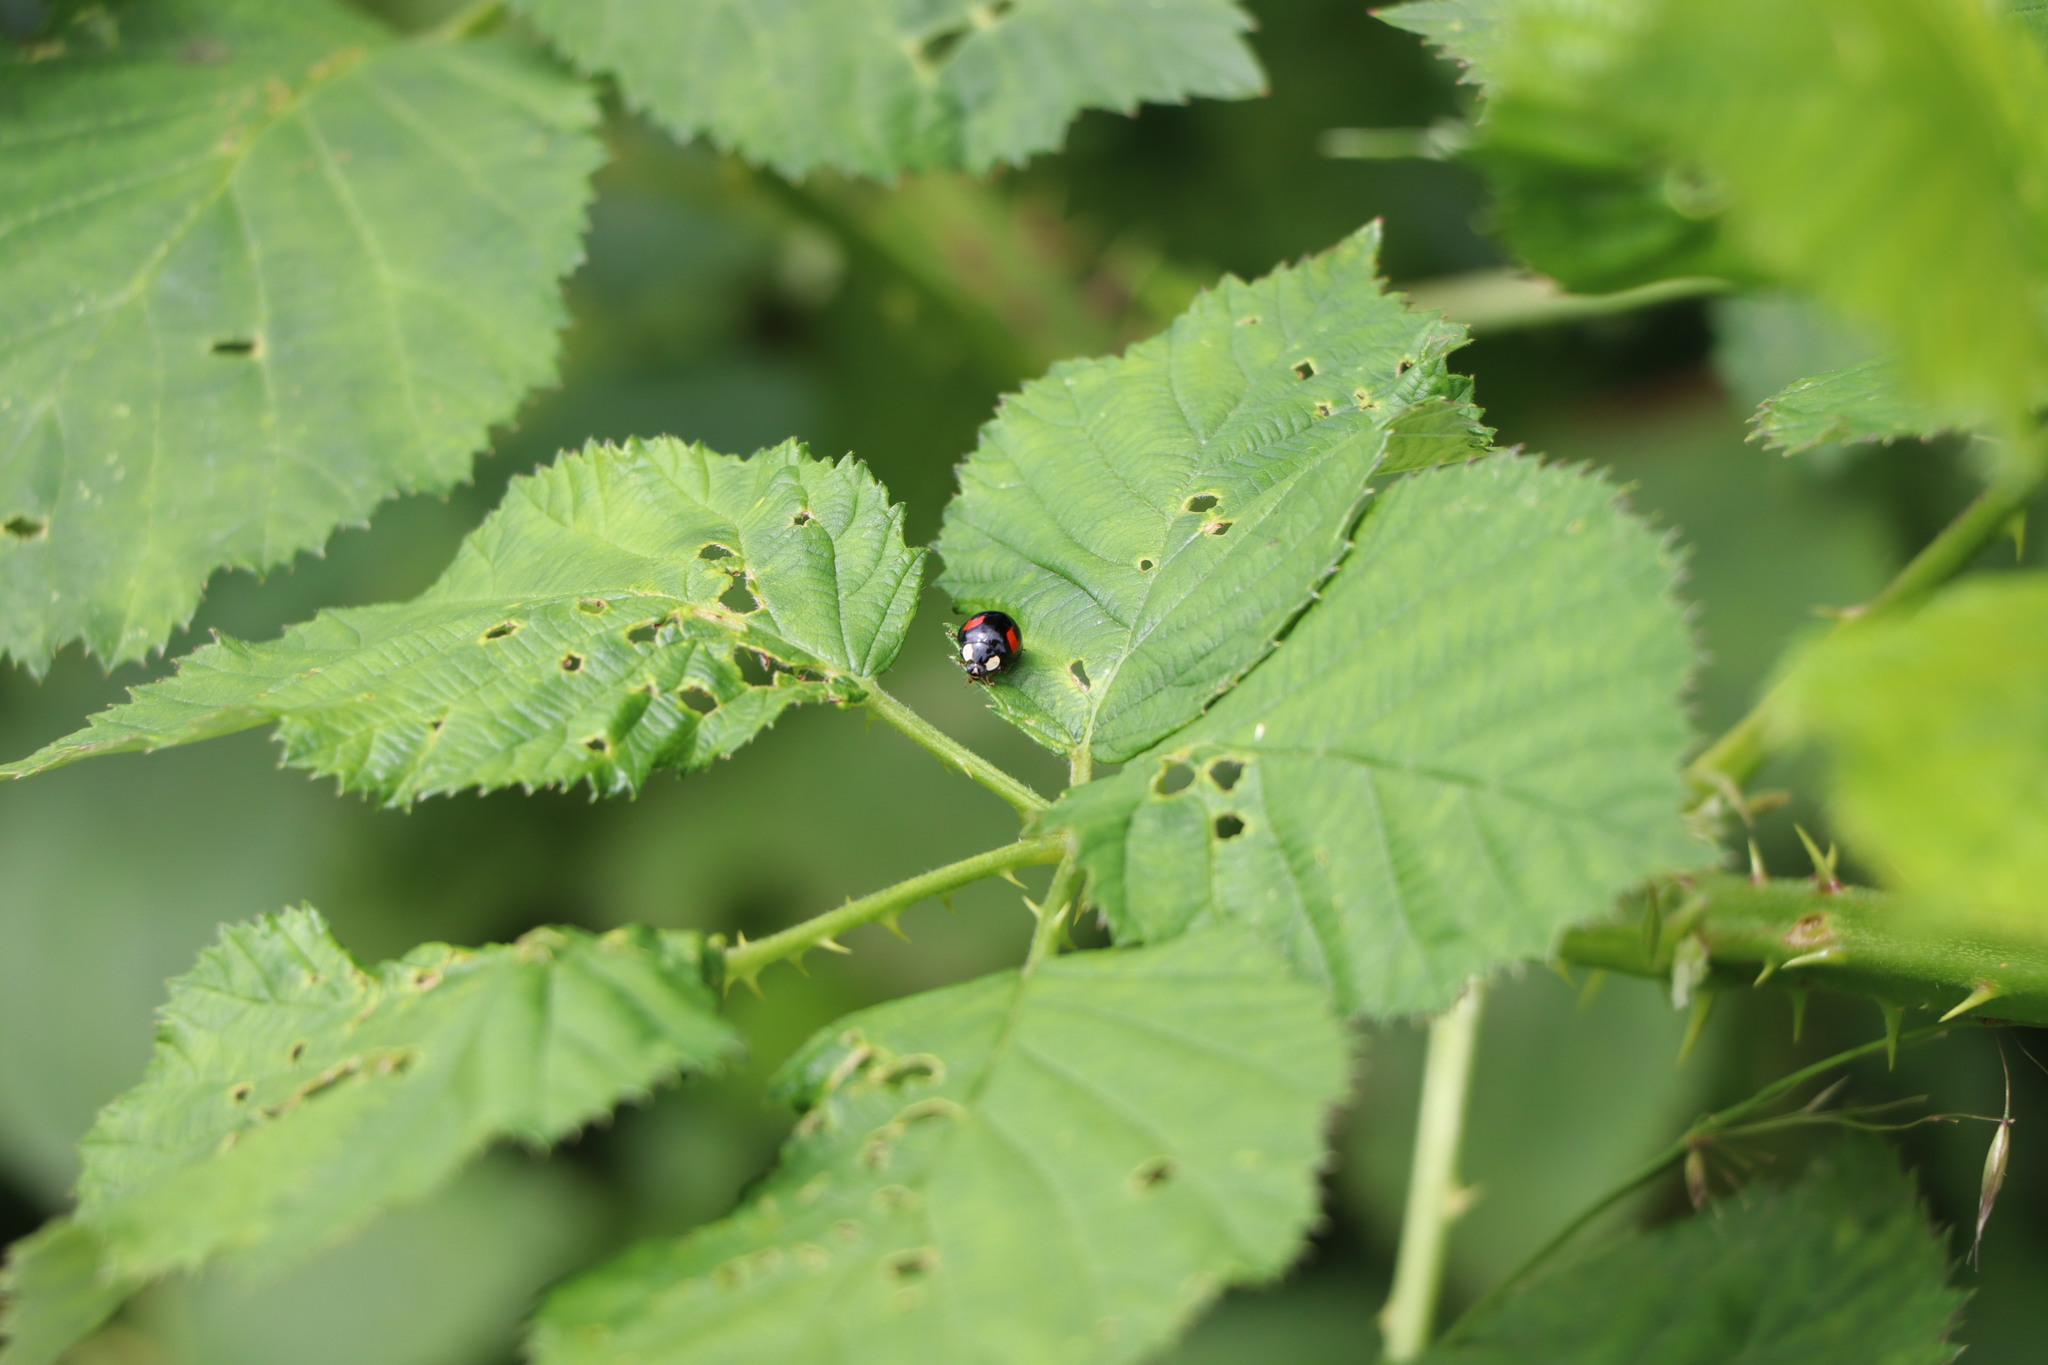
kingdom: Animalia
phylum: Arthropoda
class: Insecta
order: Coleoptera
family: Coccinellidae
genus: Harmonia
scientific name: Harmonia axyridis
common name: Harlequin ladybird
